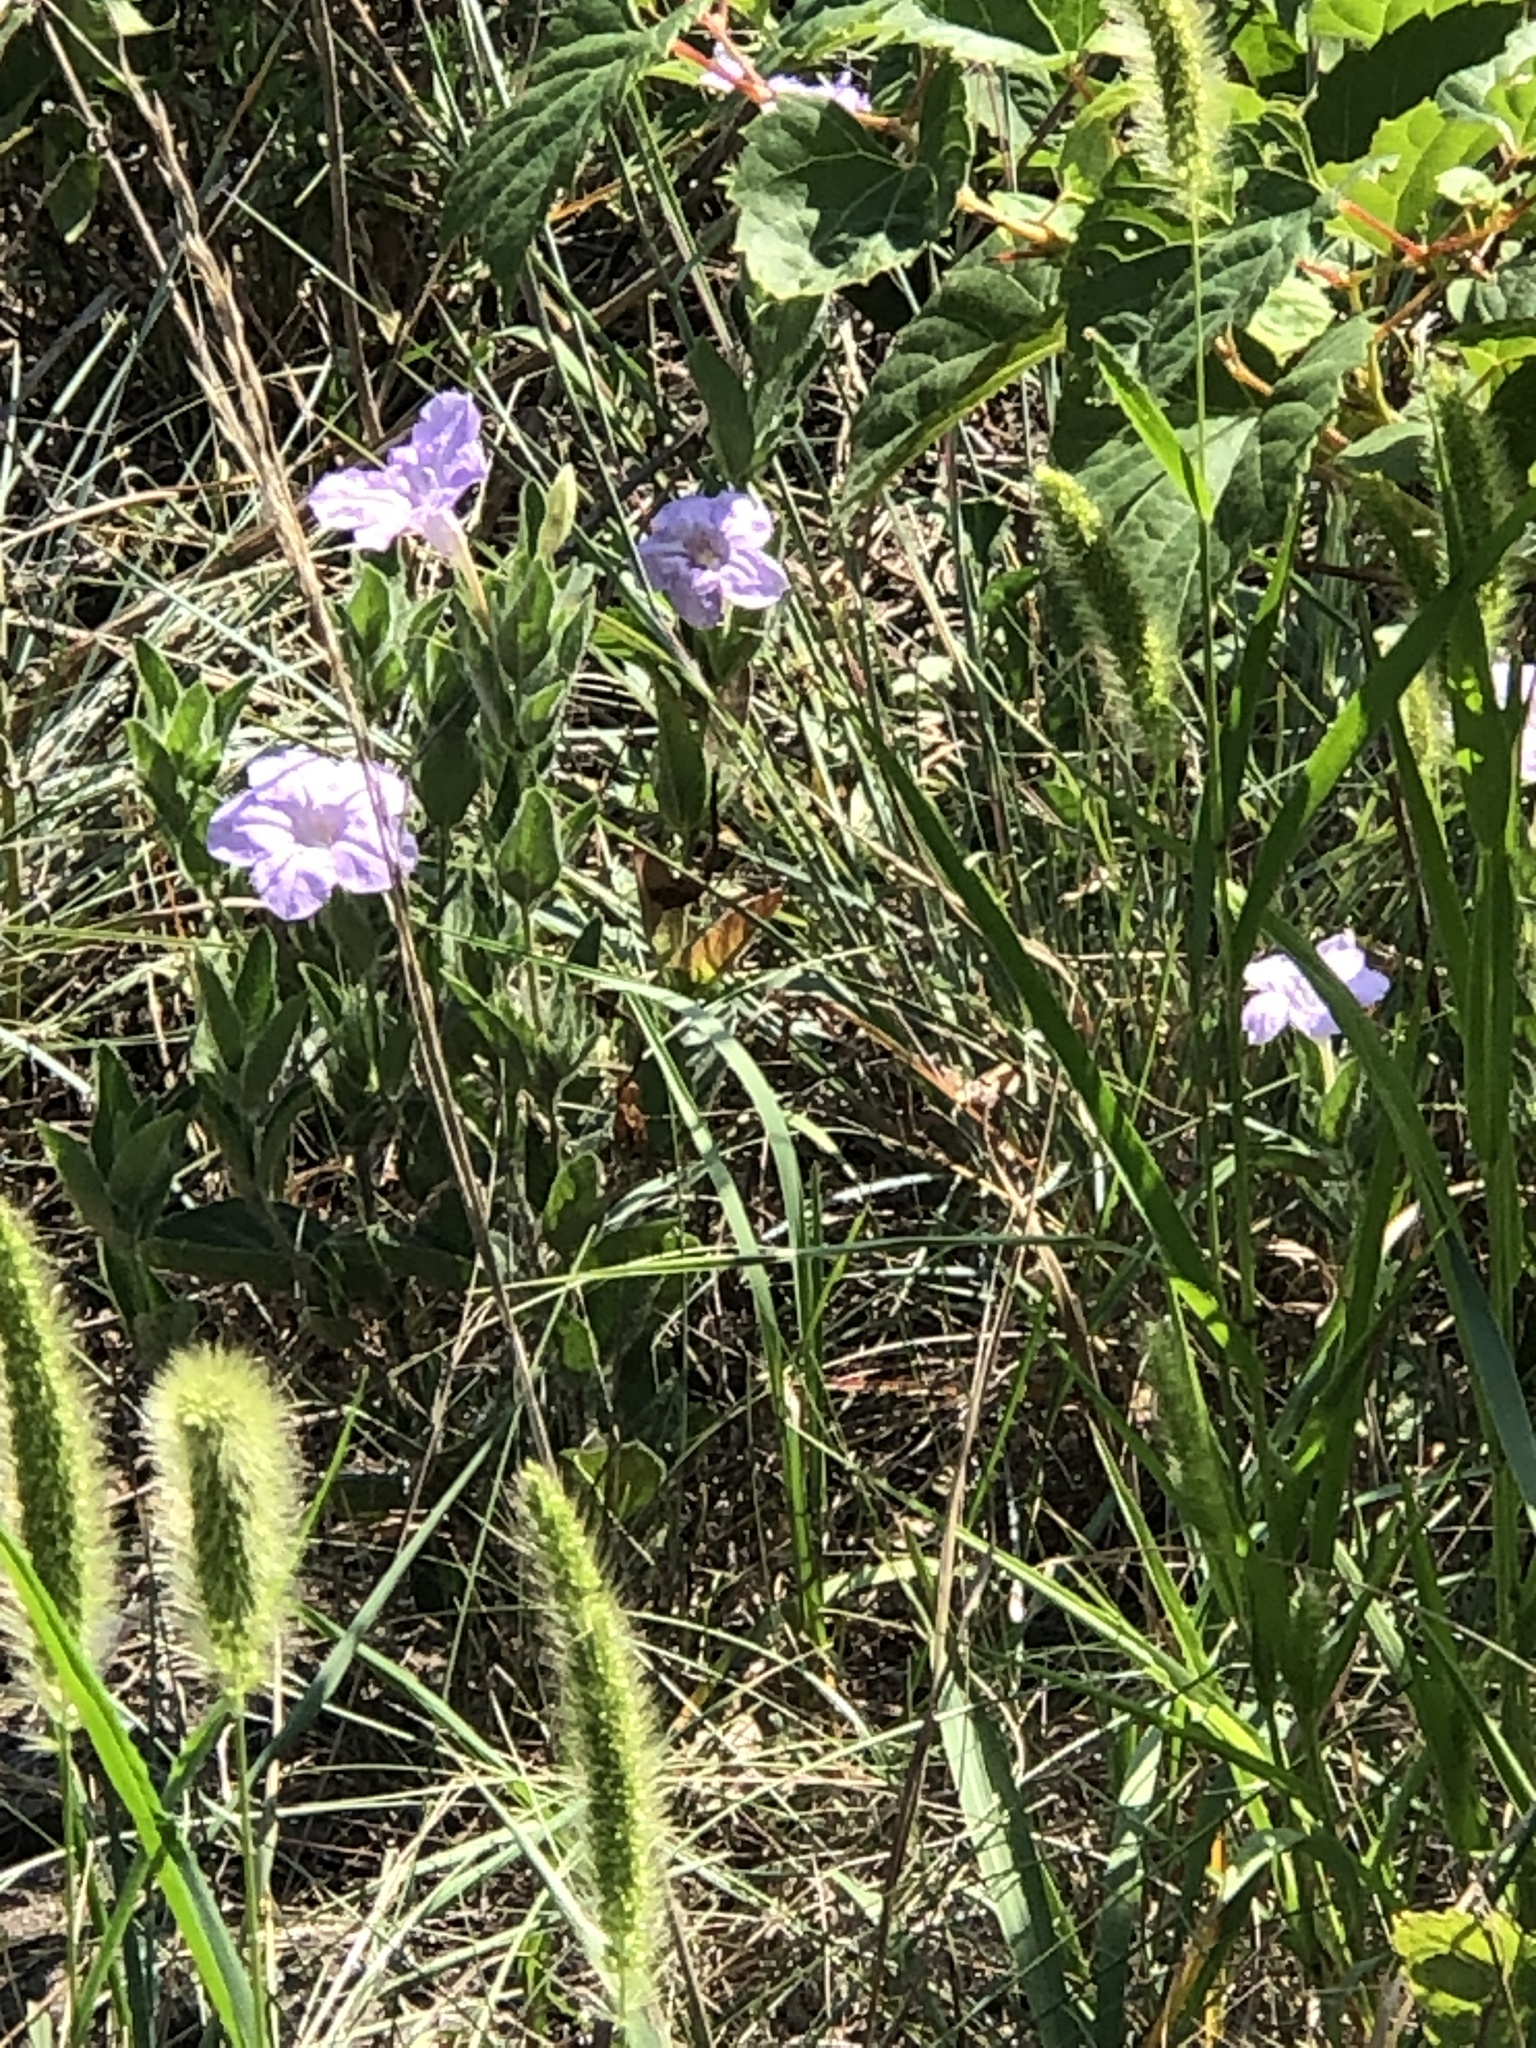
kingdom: Plantae
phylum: Tracheophyta
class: Magnoliopsida
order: Lamiales
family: Acanthaceae
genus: Ruellia
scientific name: Ruellia humilis
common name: Fringe-leaf ruellia
